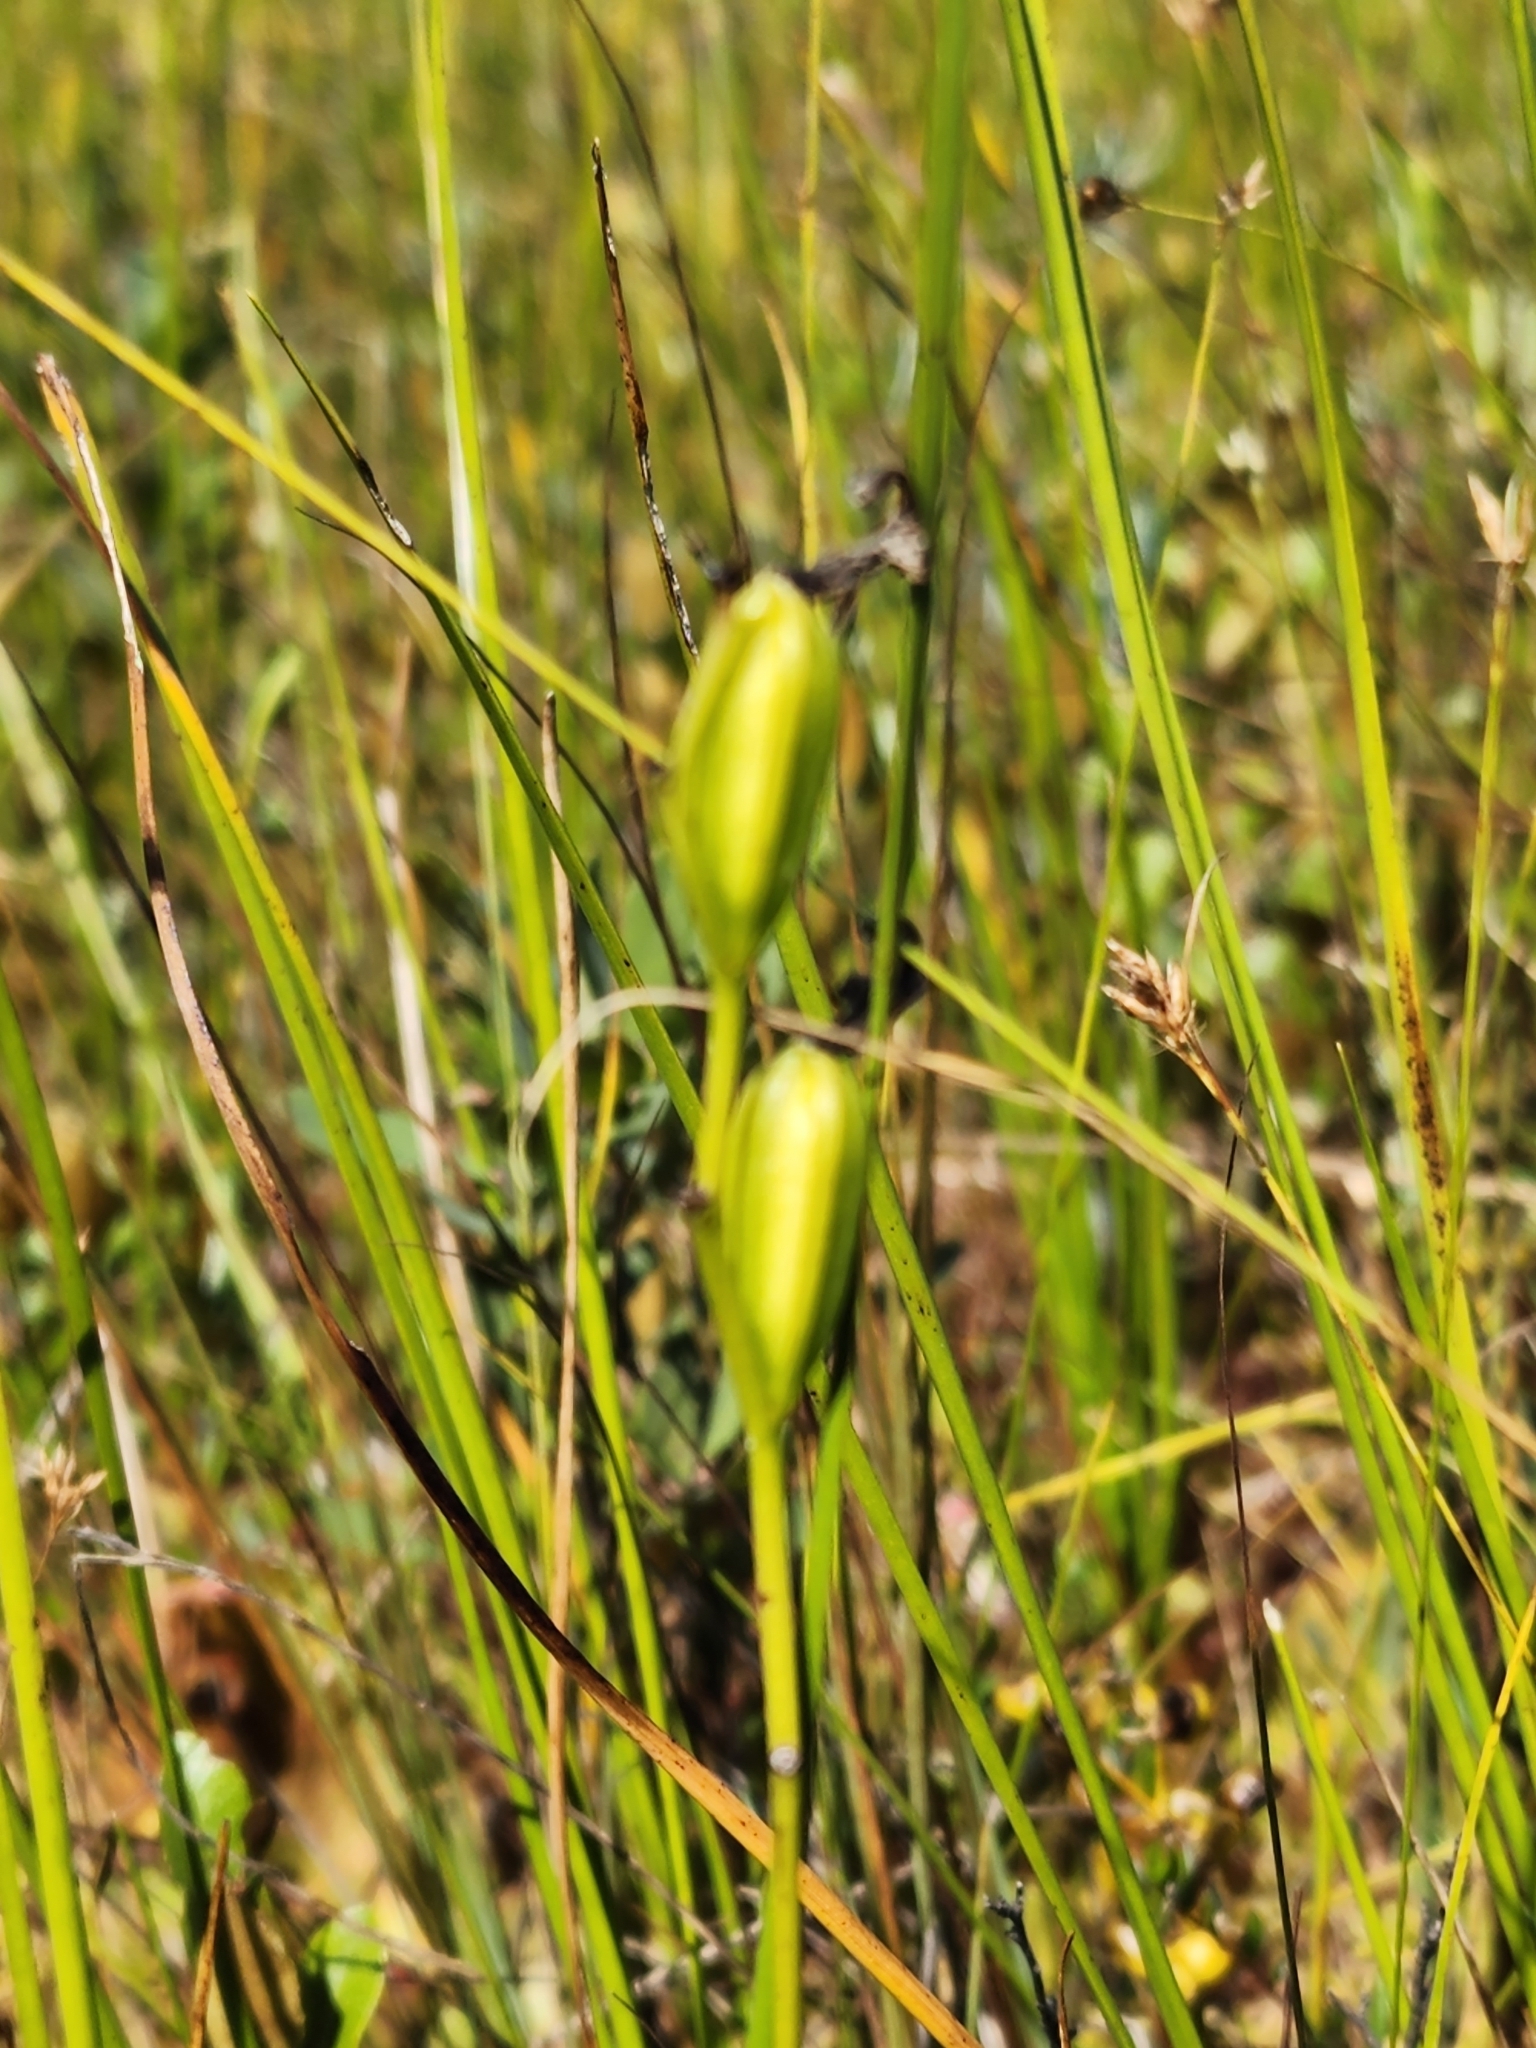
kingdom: Plantae
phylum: Tracheophyta
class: Liliopsida
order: Asparagales
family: Orchidaceae
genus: Calopogon
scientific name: Calopogon tuberosus
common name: Grass-pink
